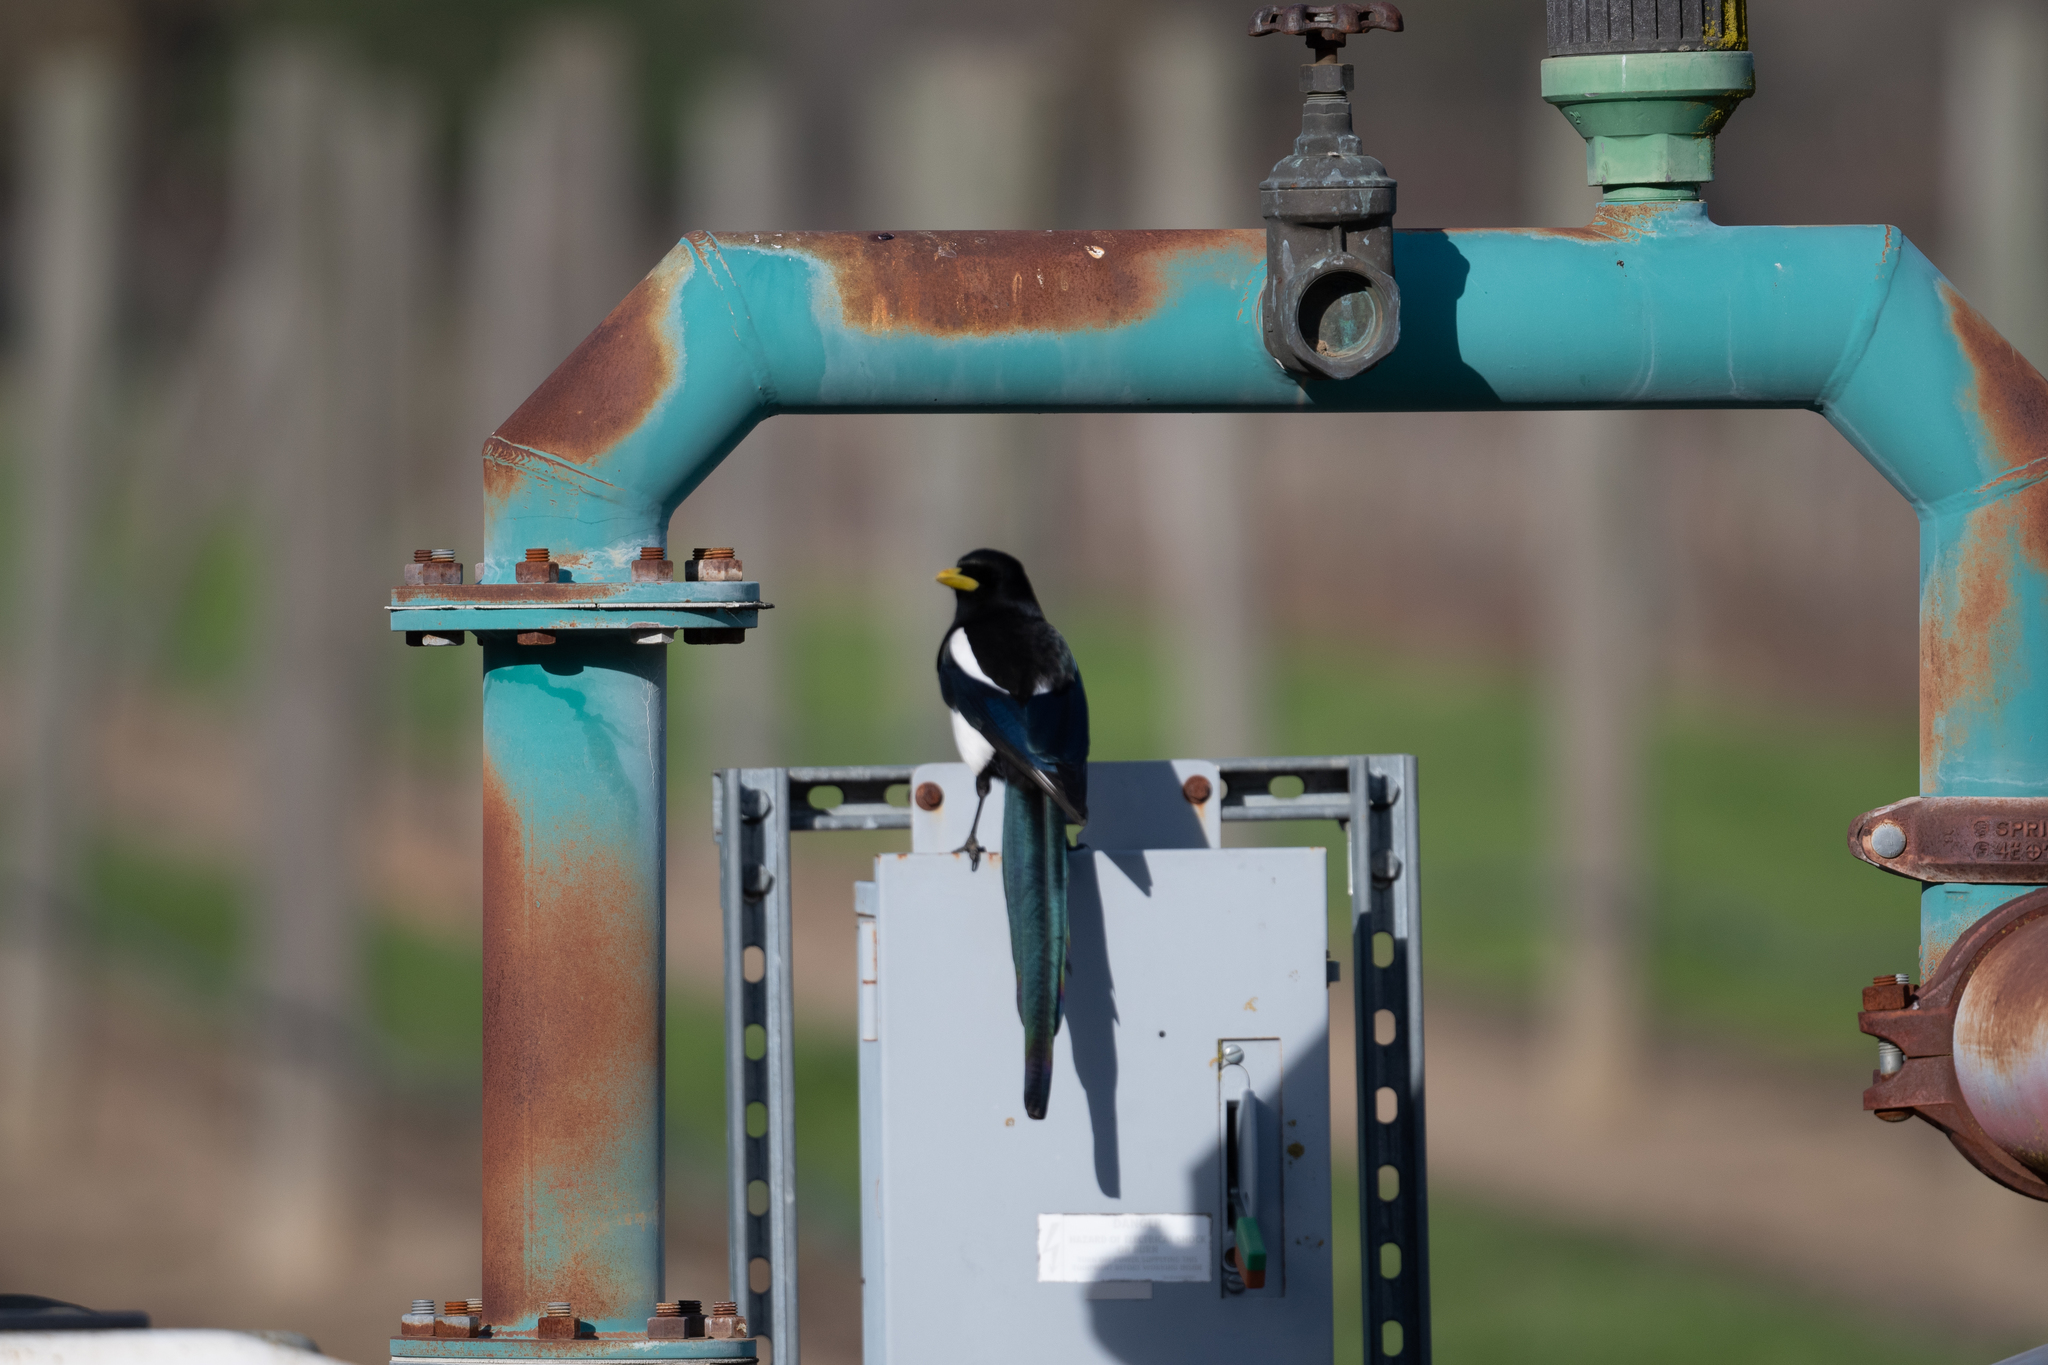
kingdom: Animalia
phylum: Chordata
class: Aves
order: Passeriformes
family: Corvidae
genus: Pica
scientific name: Pica nuttalli
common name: Yellow-billed magpie
